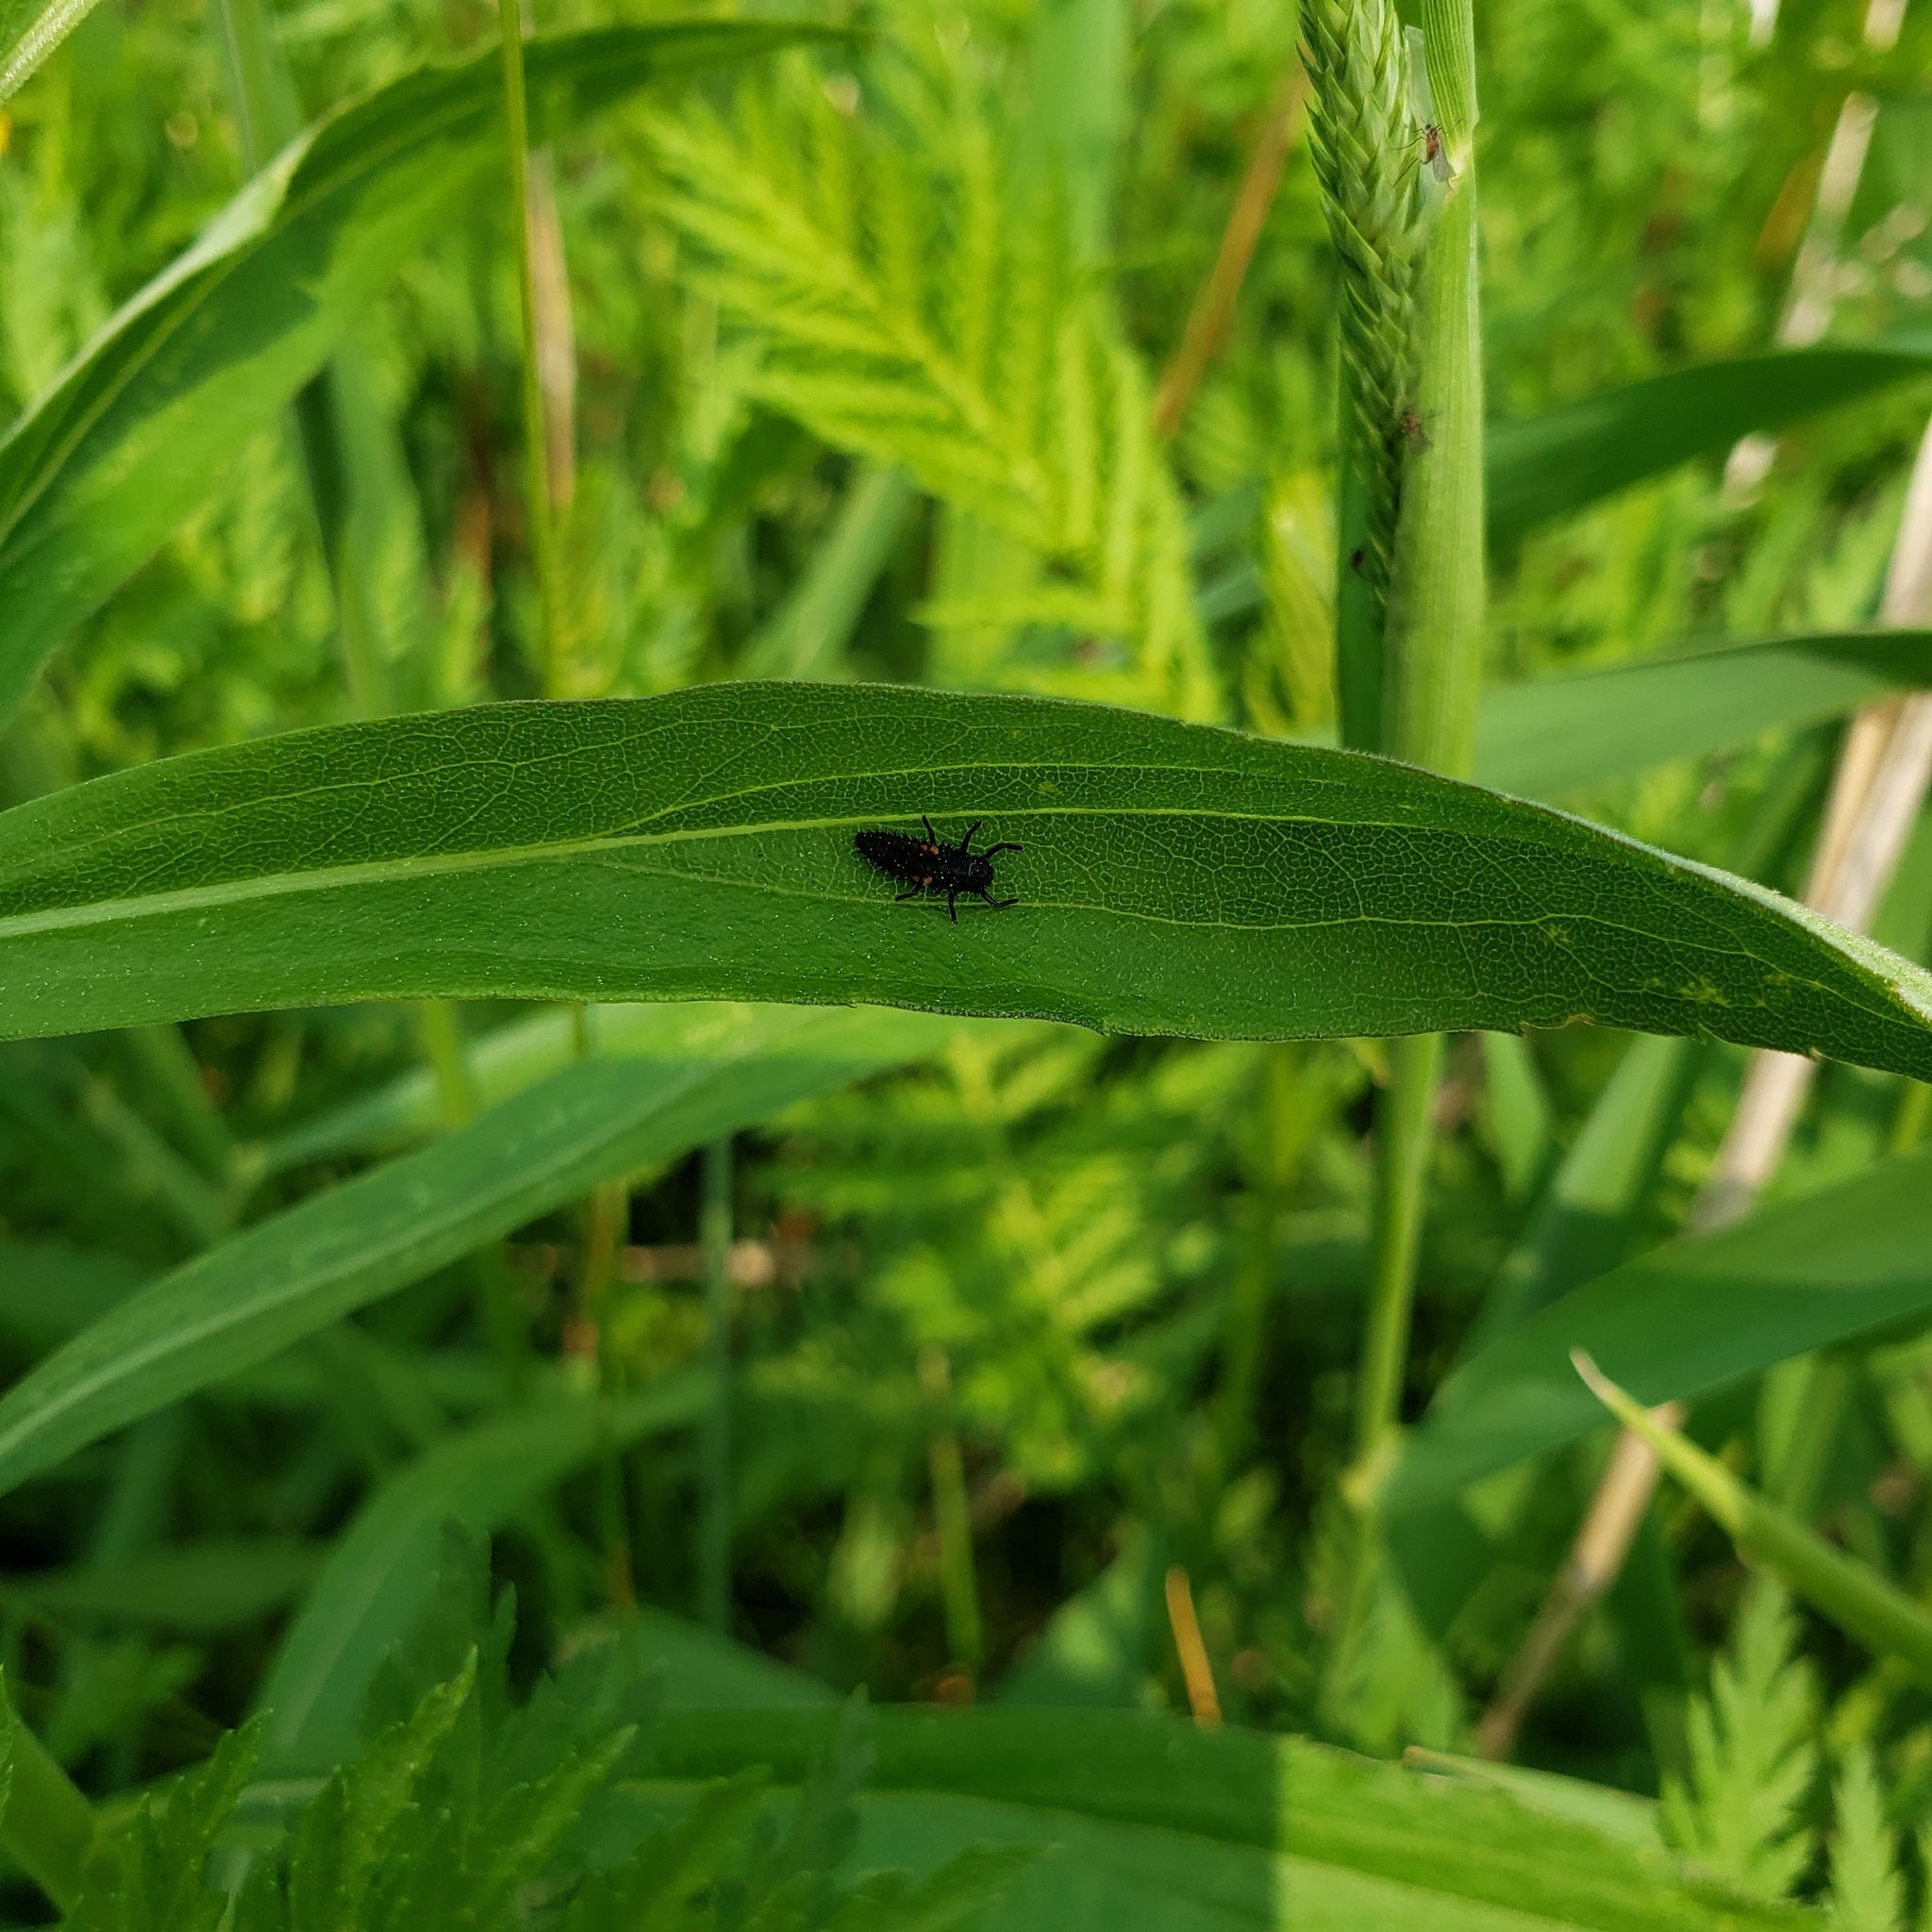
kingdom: Animalia
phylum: Arthropoda
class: Insecta
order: Coleoptera
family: Coccinellidae
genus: Harmonia
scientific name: Harmonia axyridis
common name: Harlequin ladybird
